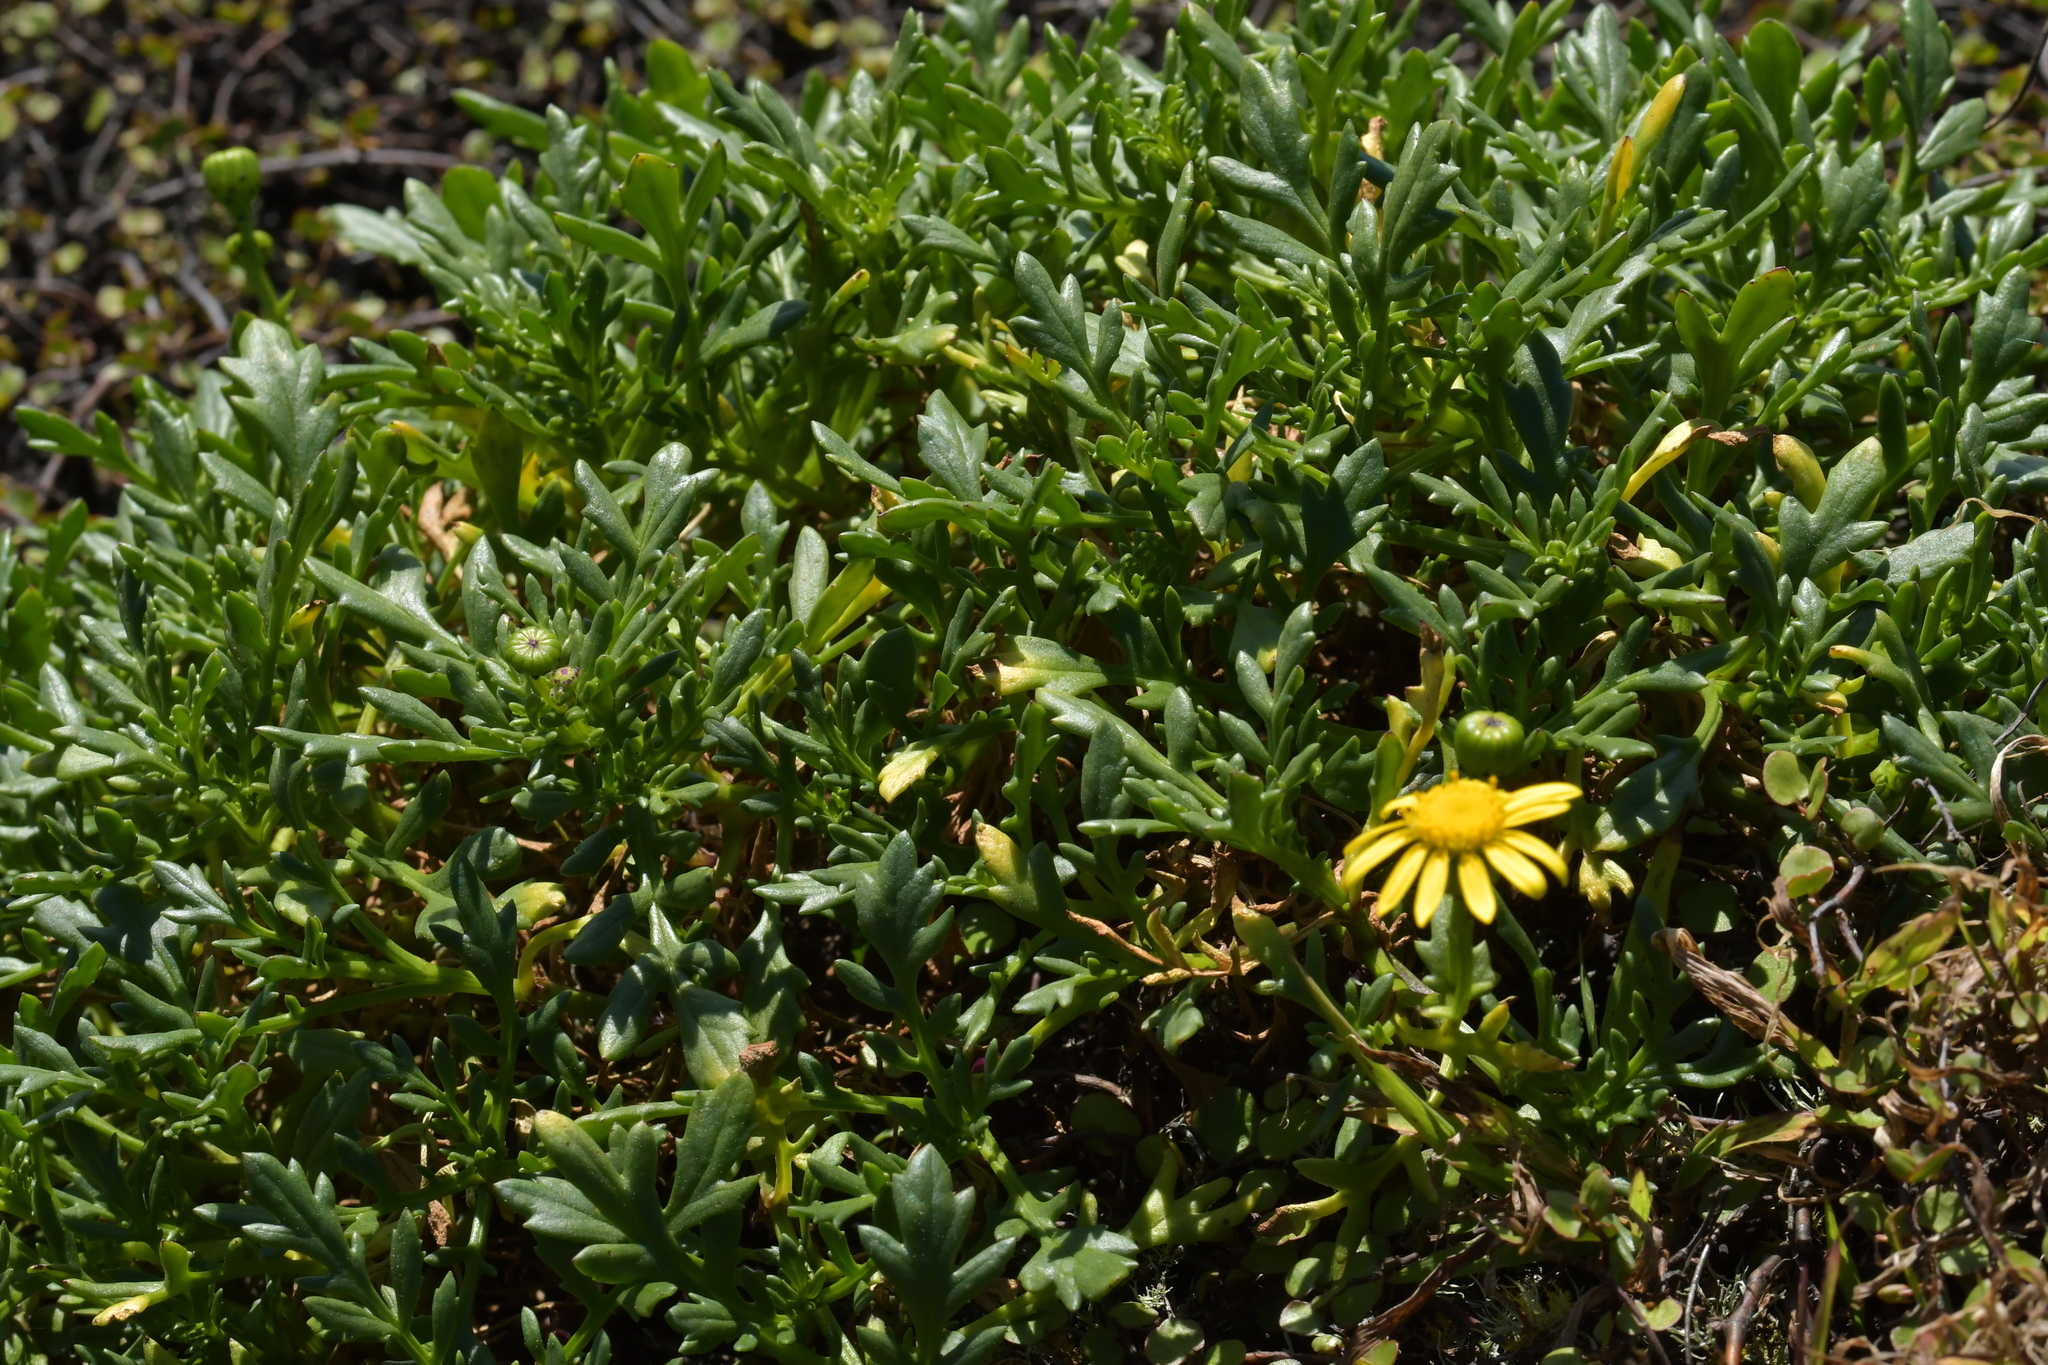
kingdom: Plantae
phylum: Tracheophyta
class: Magnoliopsida
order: Asterales
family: Asteraceae
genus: Senecio
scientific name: Senecio lautus
